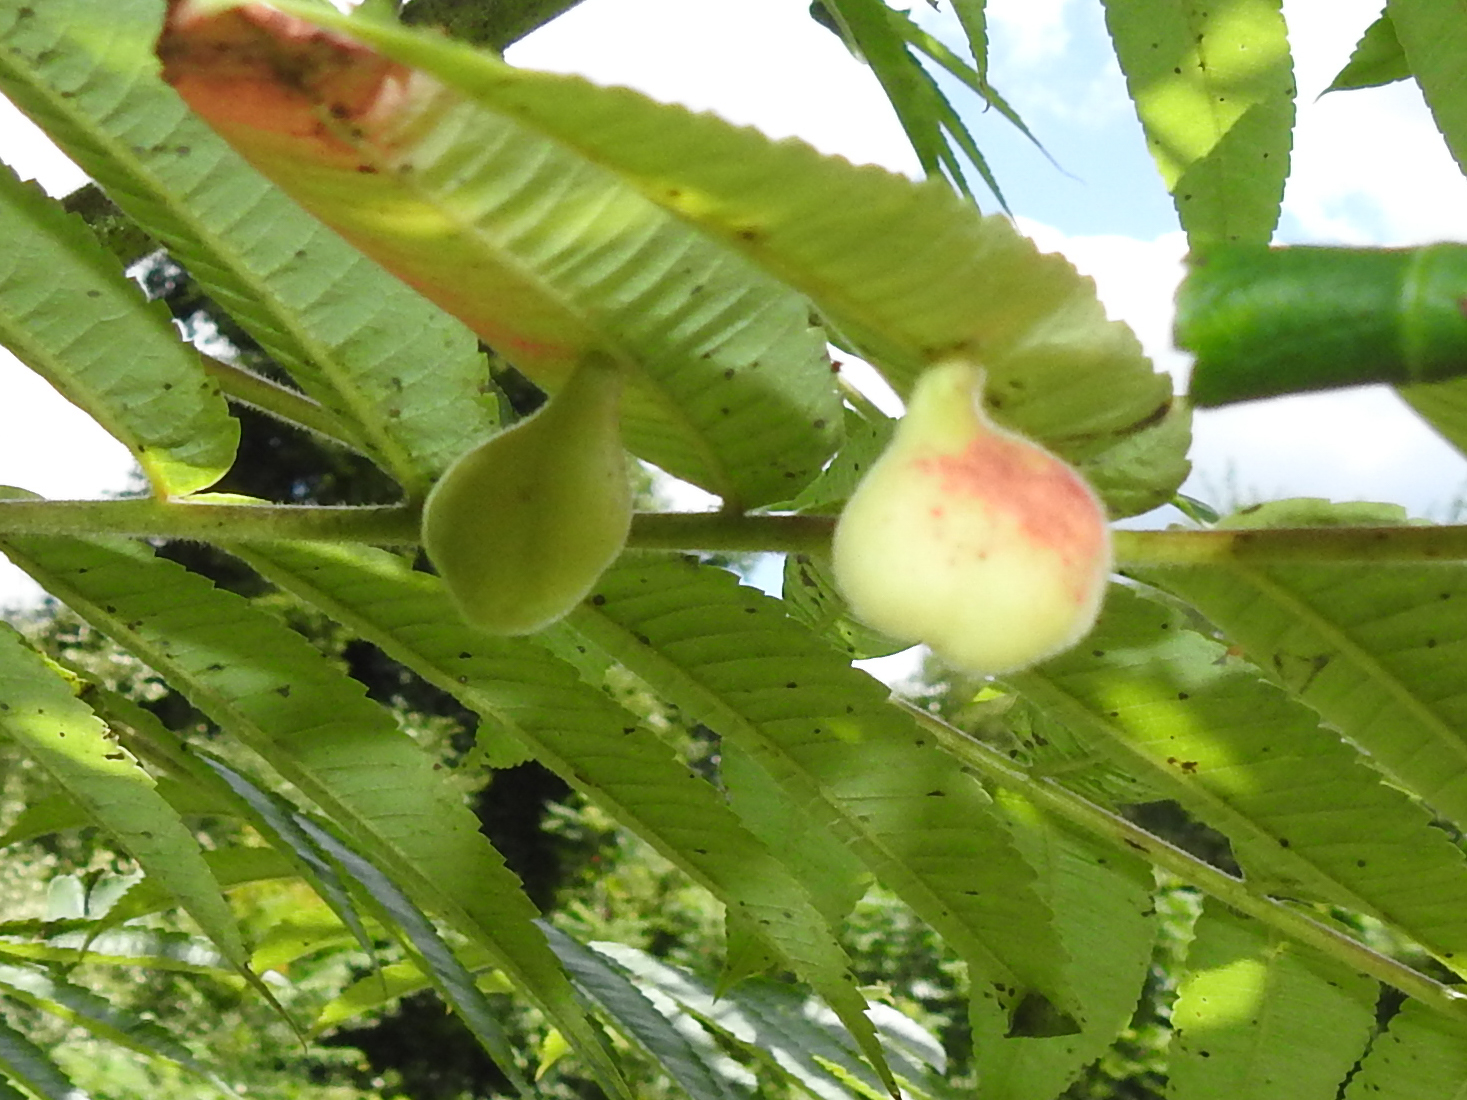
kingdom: Animalia
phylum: Arthropoda
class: Insecta
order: Hemiptera
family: Aphididae
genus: Melaphis
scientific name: Melaphis rhois
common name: Sumac gall aphid
